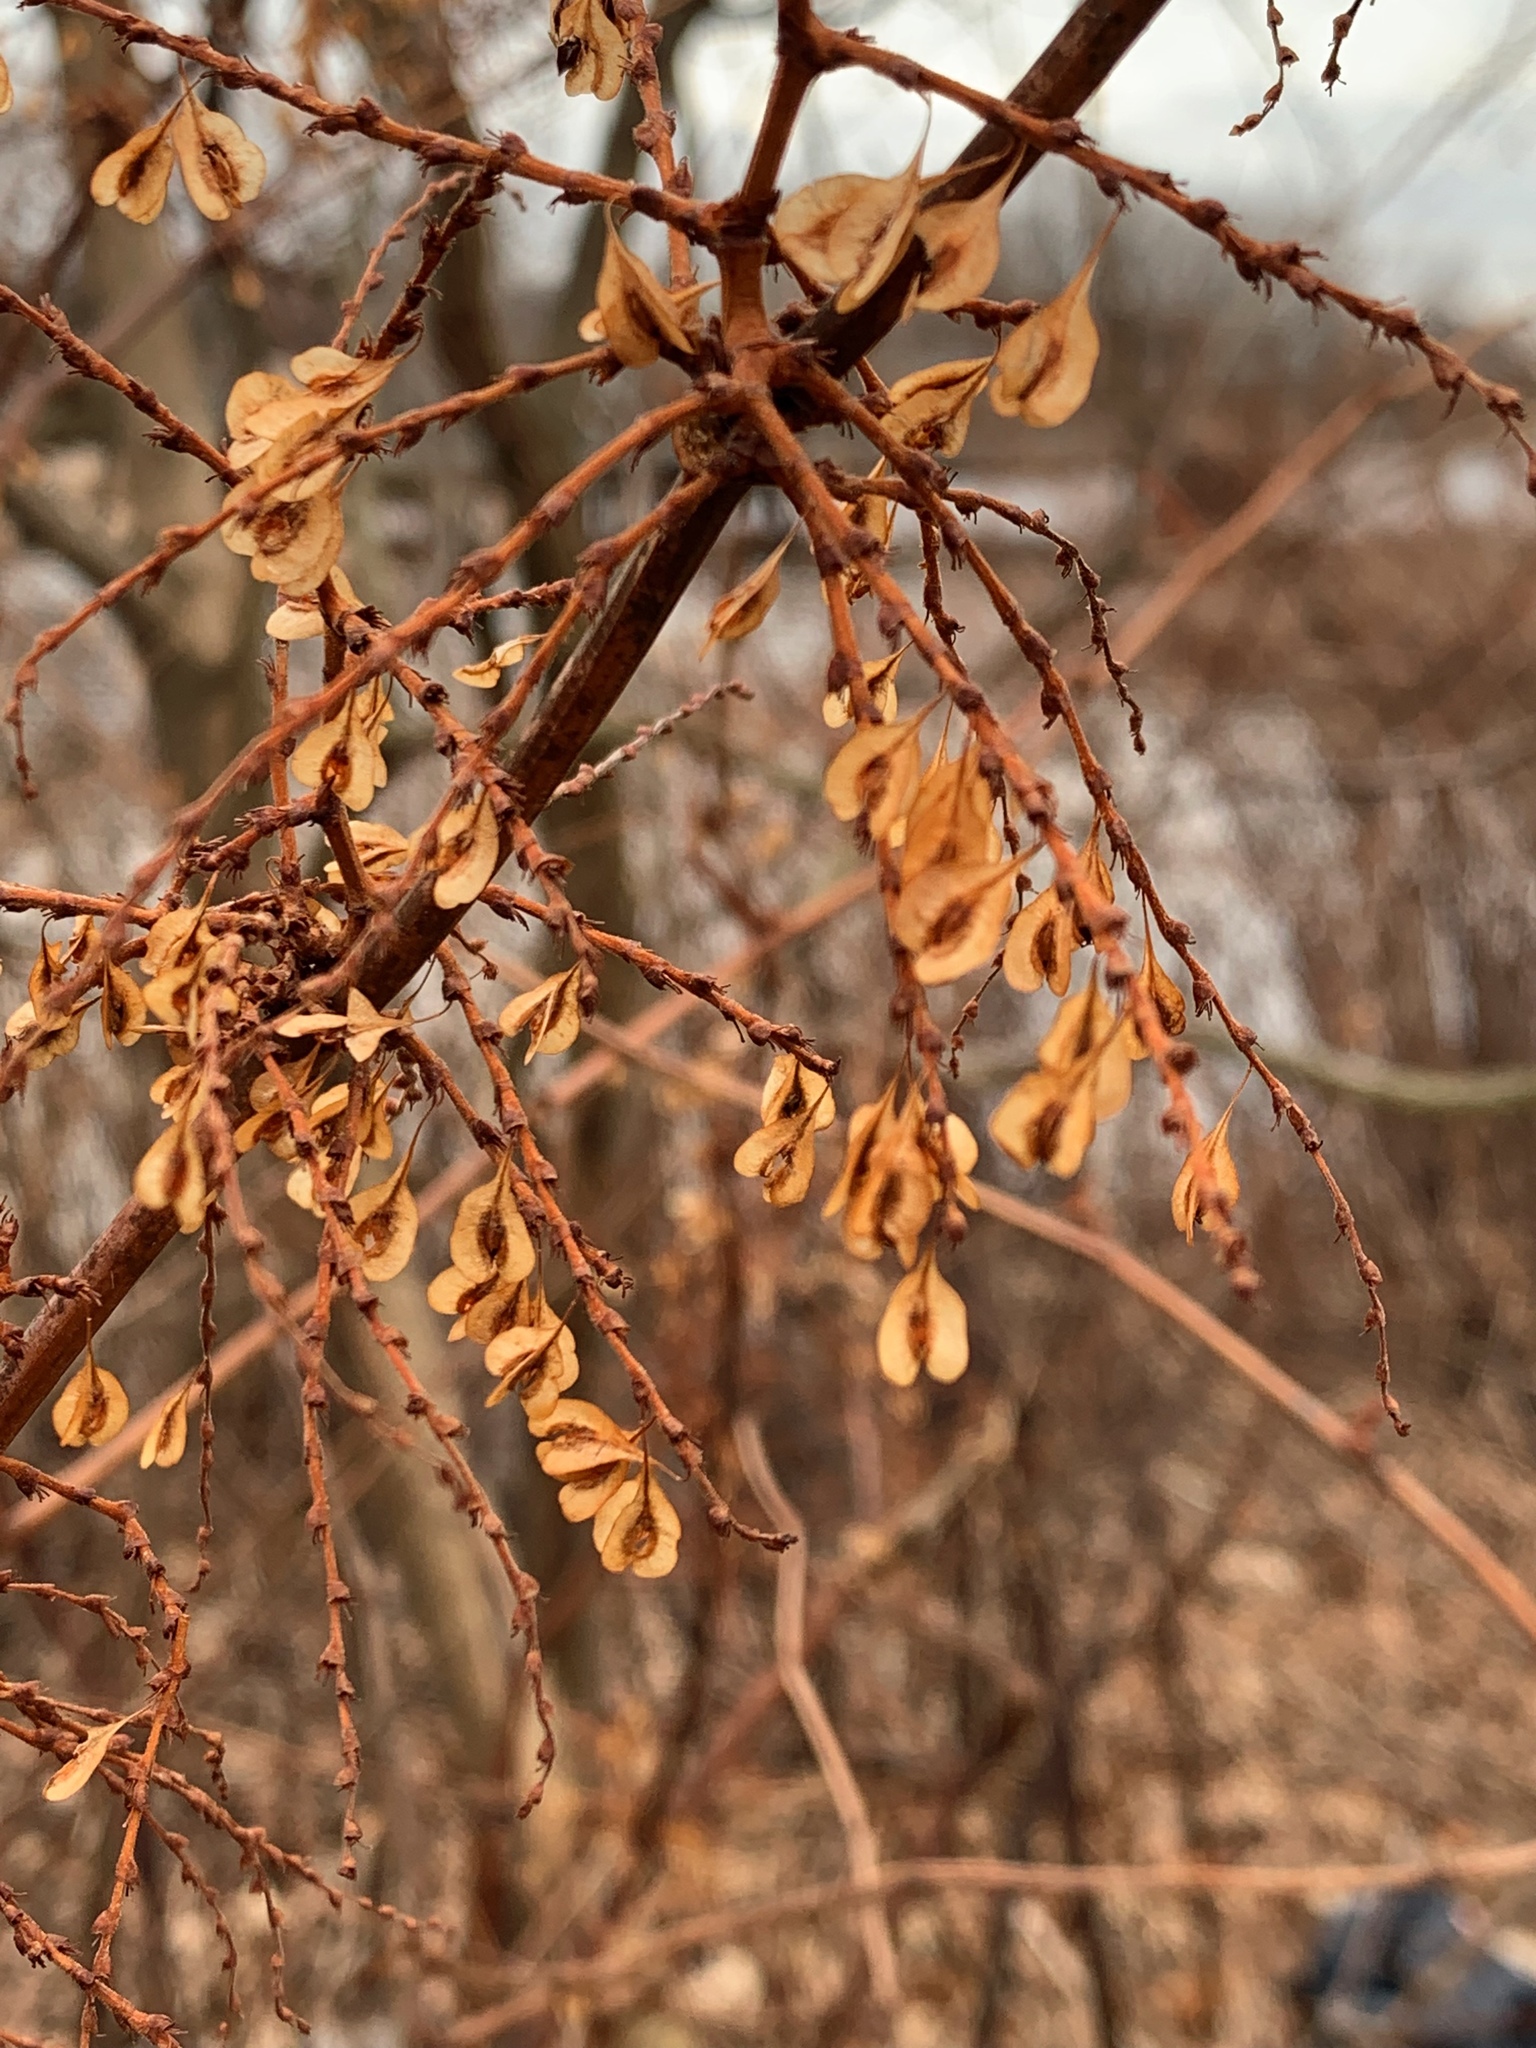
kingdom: Plantae
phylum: Tracheophyta
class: Magnoliopsida
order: Caryophyllales
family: Polygonaceae
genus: Reynoutria
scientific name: Reynoutria japonica
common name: Japanese knotweed
